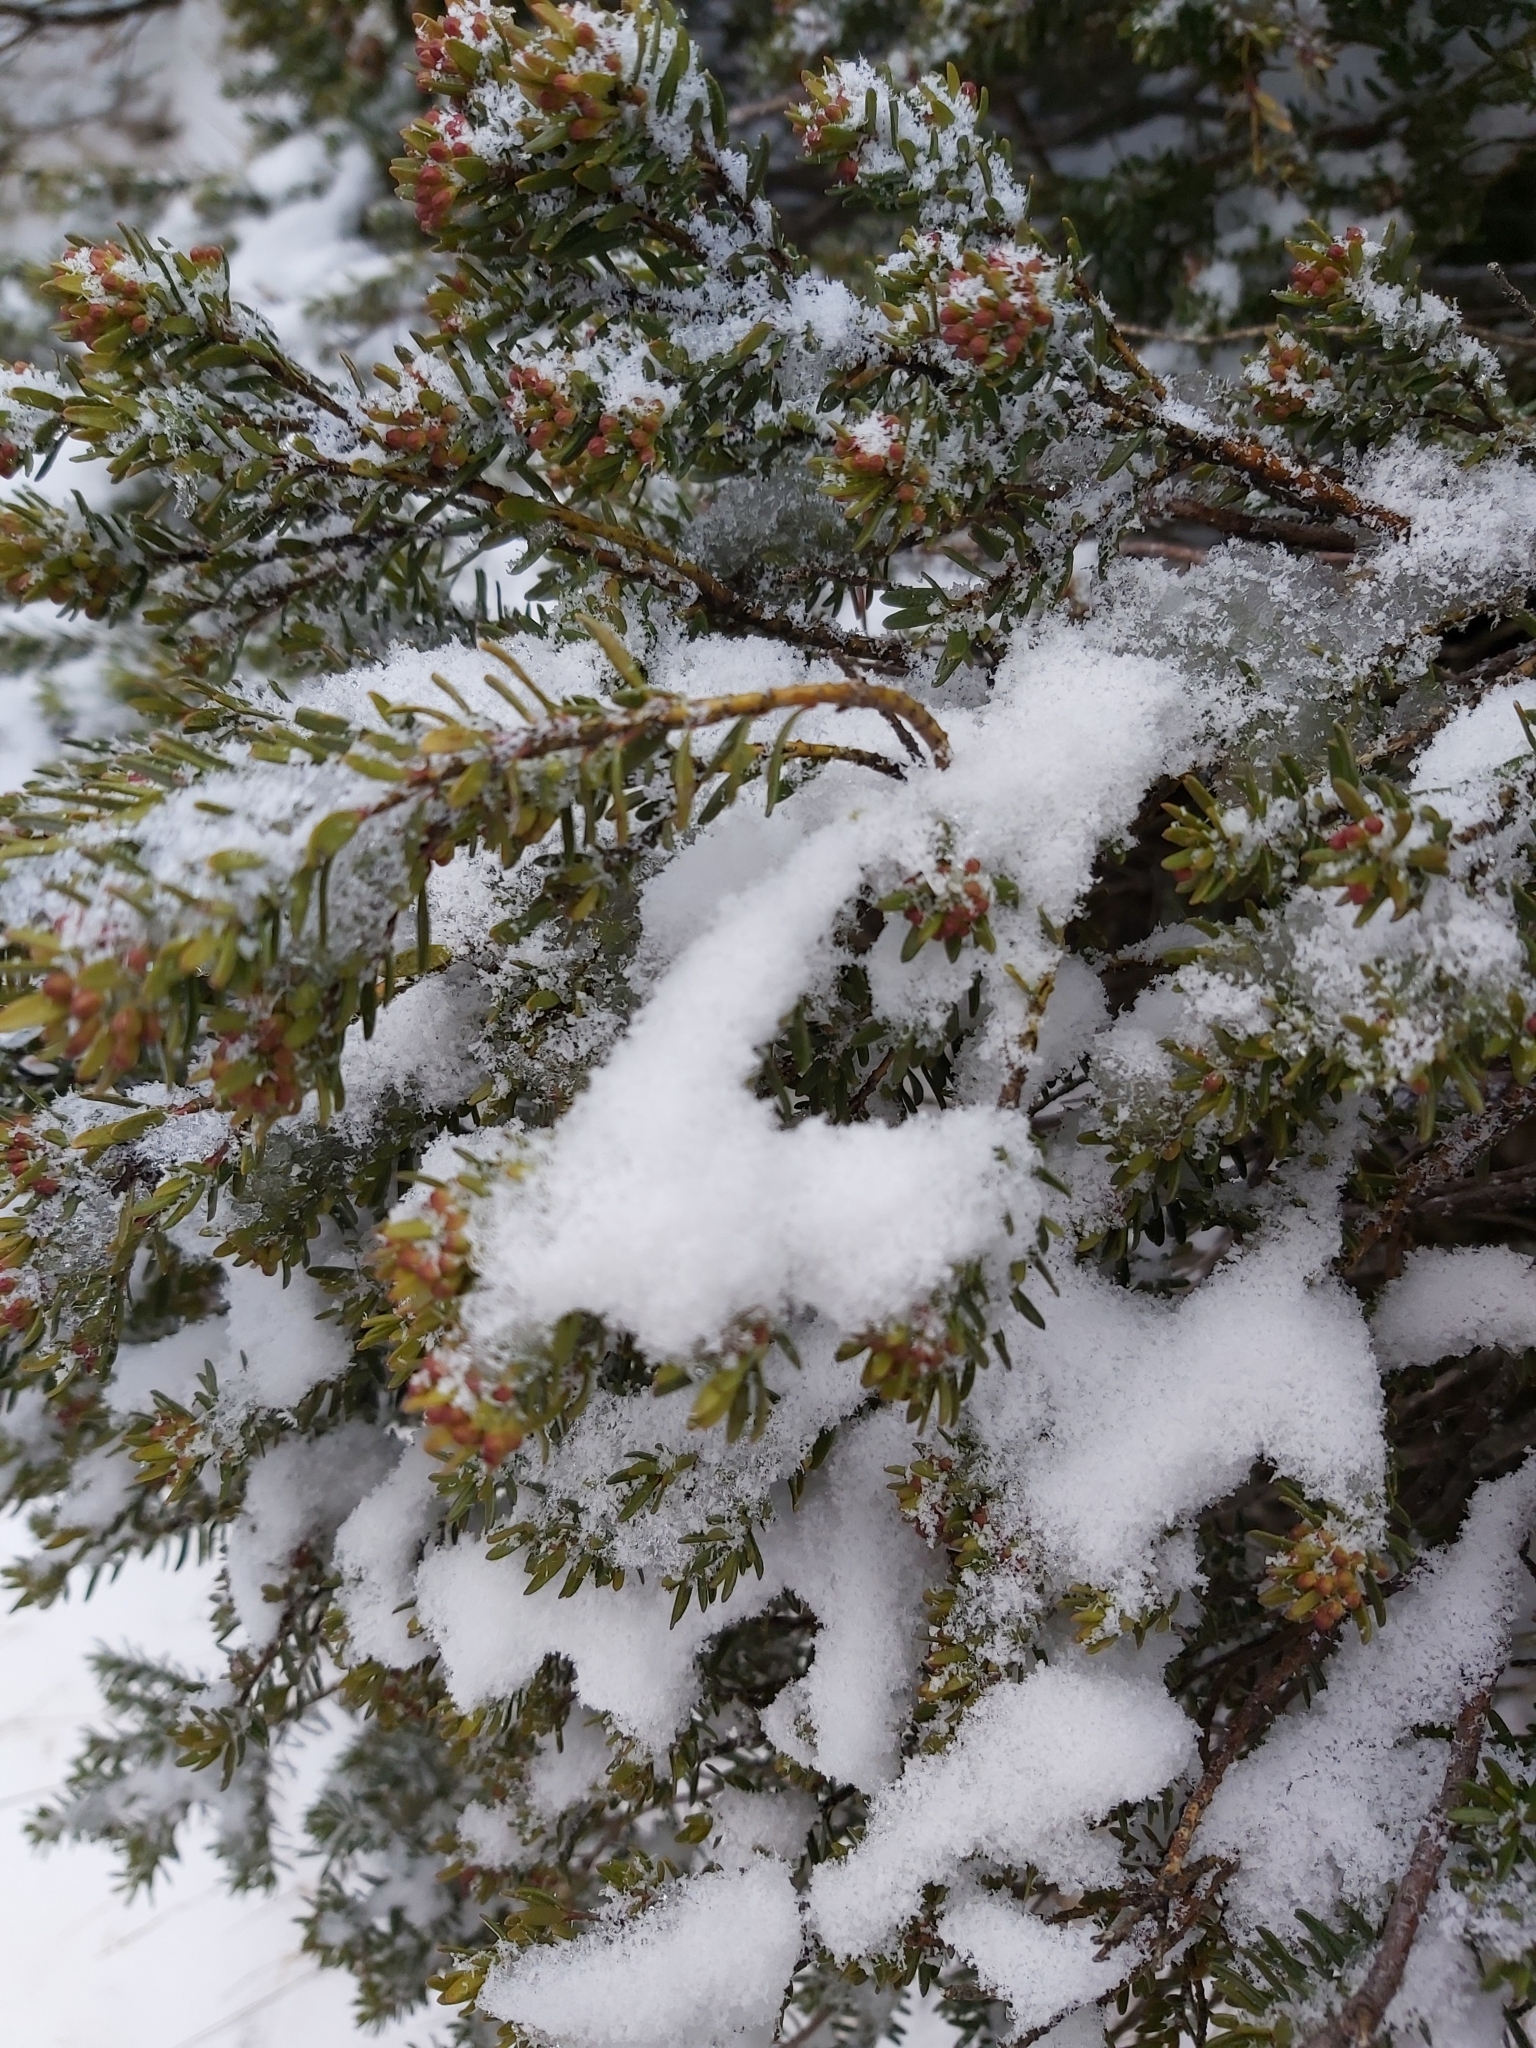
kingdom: Plantae
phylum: Tracheophyta
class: Pinopsida
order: Pinales
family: Podocarpaceae
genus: Podocarpus
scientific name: Podocarpus lawrencei
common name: Mountain plum pine
